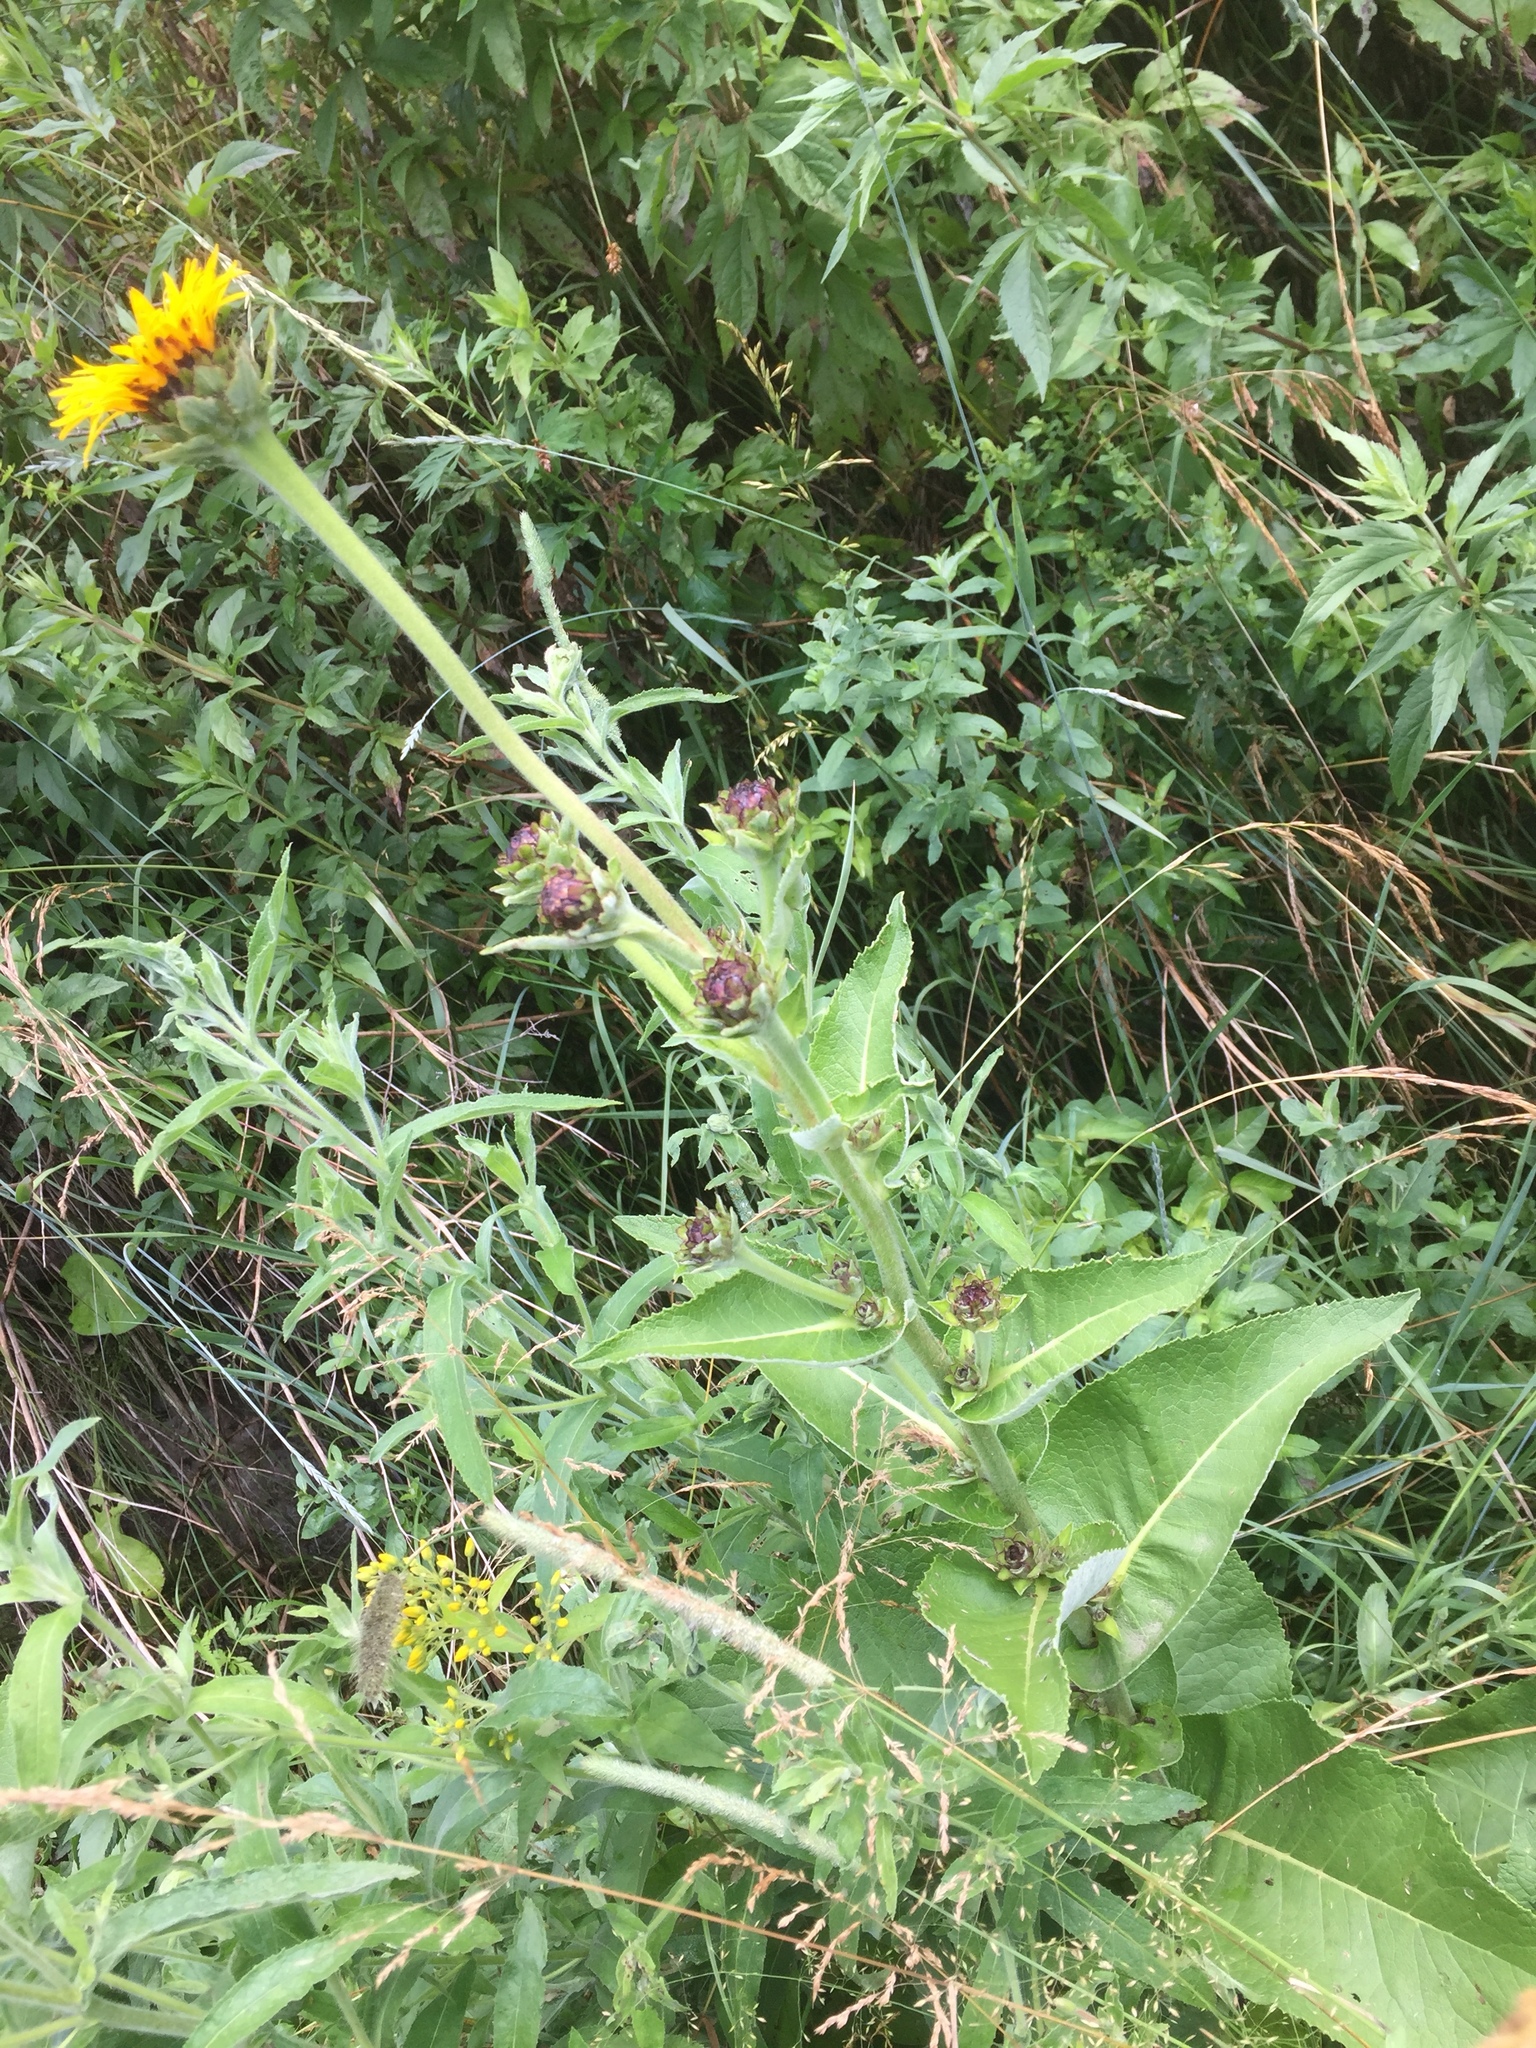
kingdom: Plantae
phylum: Tracheophyta
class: Magnoliopsida
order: Asterales
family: Asteraceae
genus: Inula
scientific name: Inula helenium
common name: Elecampane
